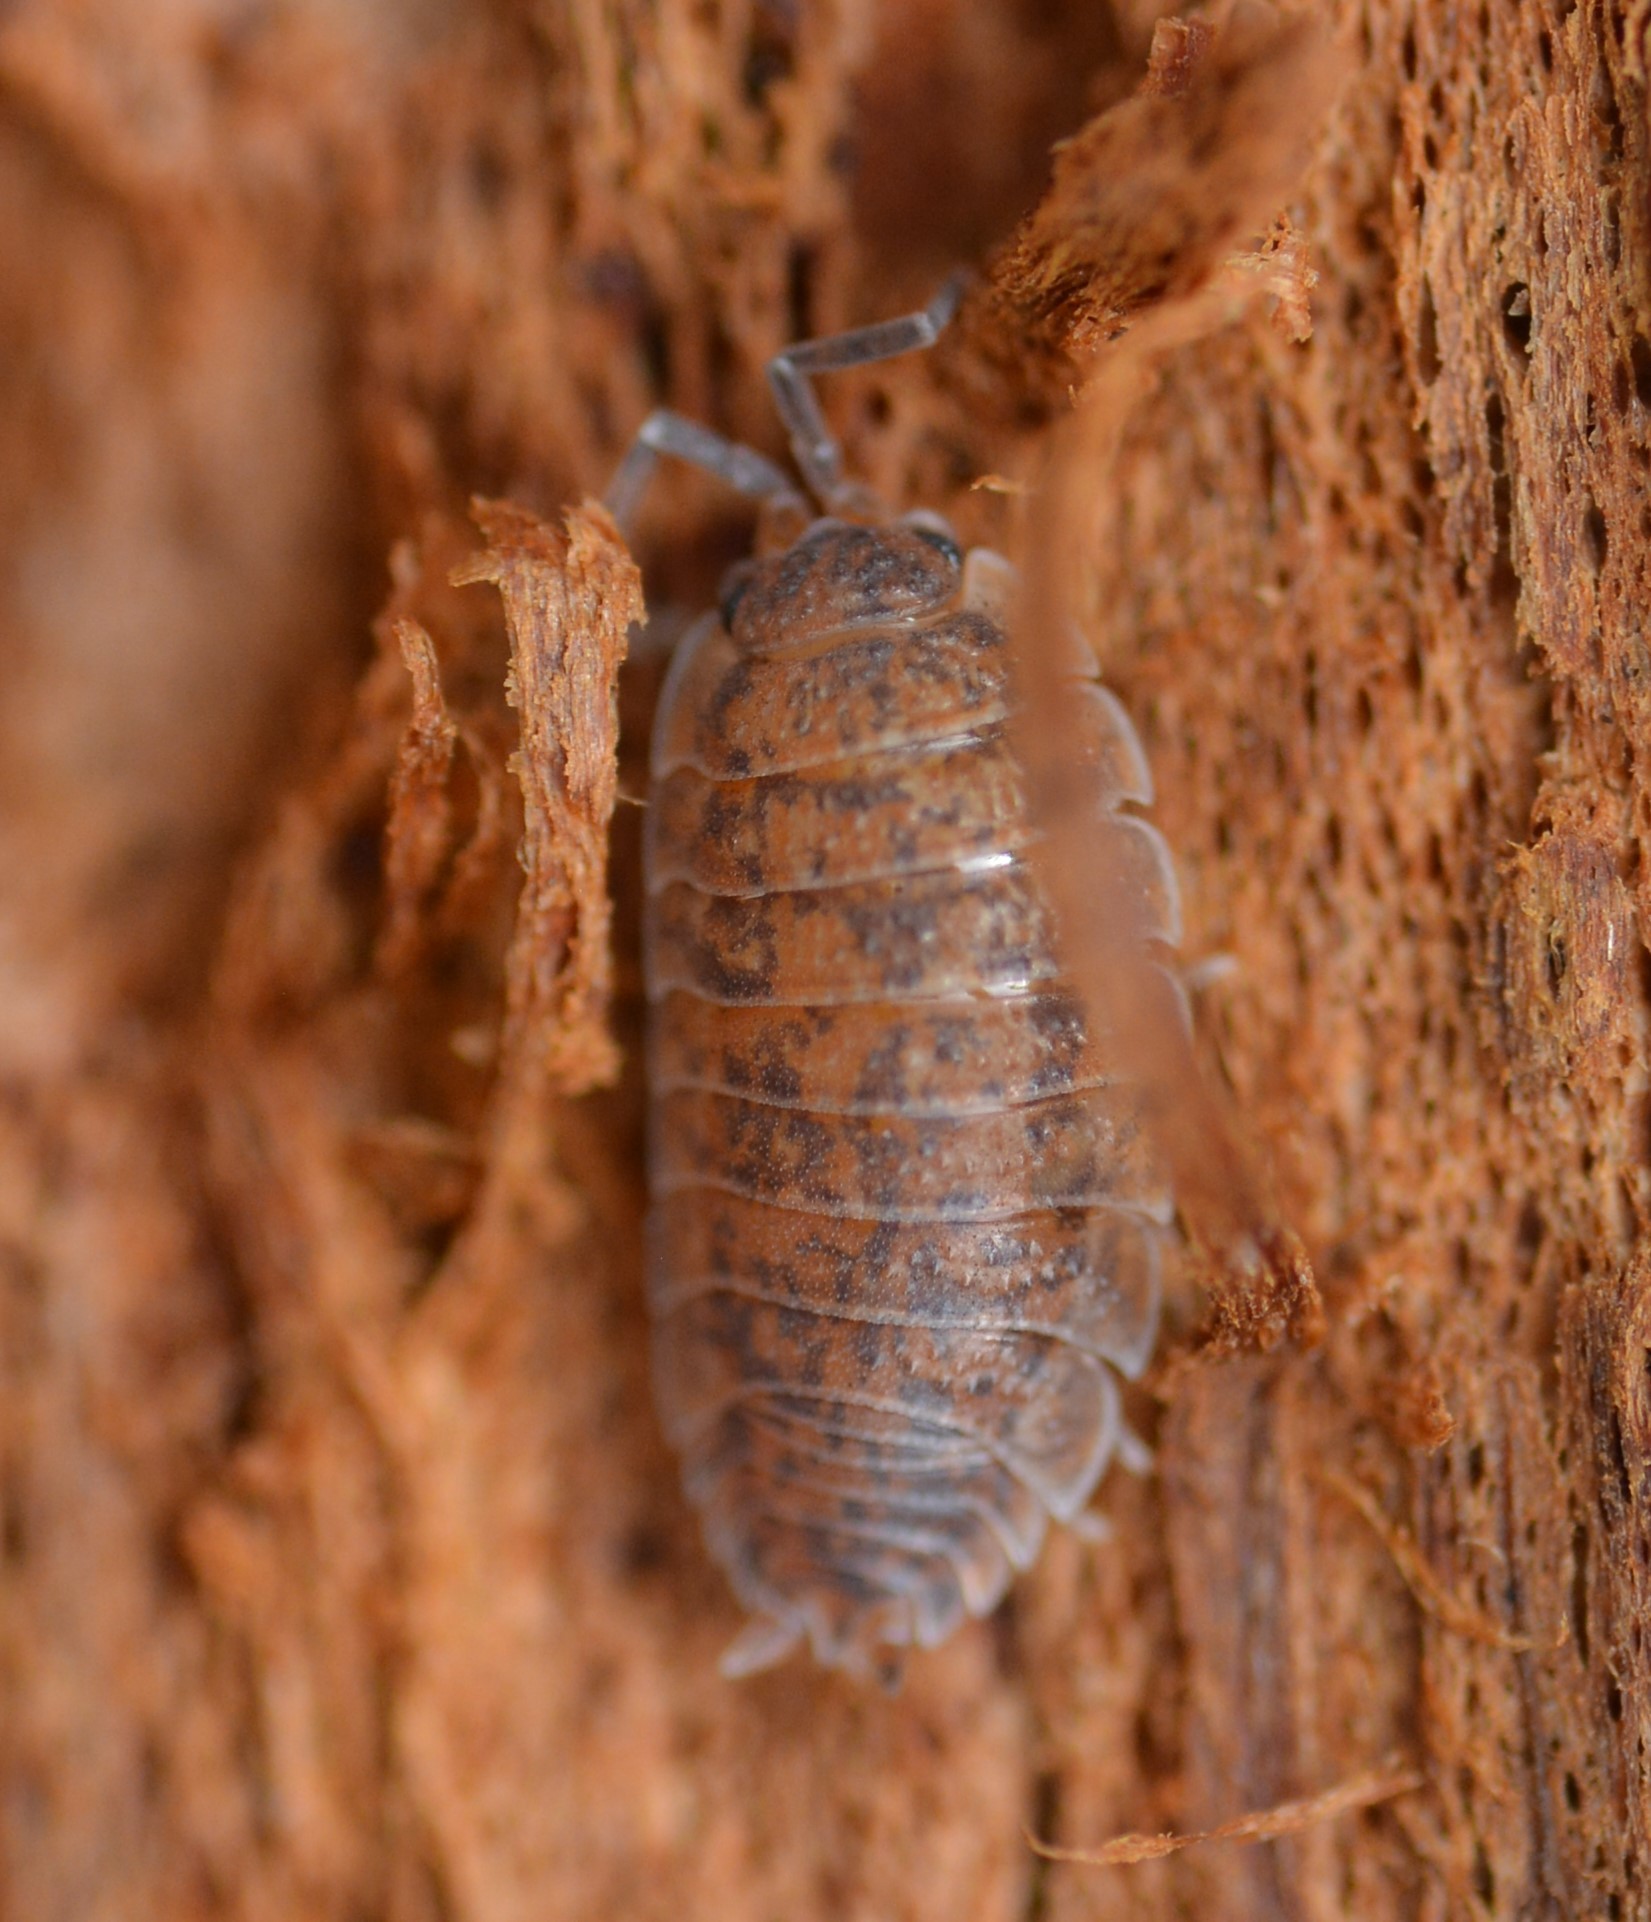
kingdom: Animalia
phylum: Arthropoda
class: Malacostraca
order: Isopoda
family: Trachelipodidae
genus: Trachelipus
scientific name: Trachelipus rathkii
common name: Isopod
